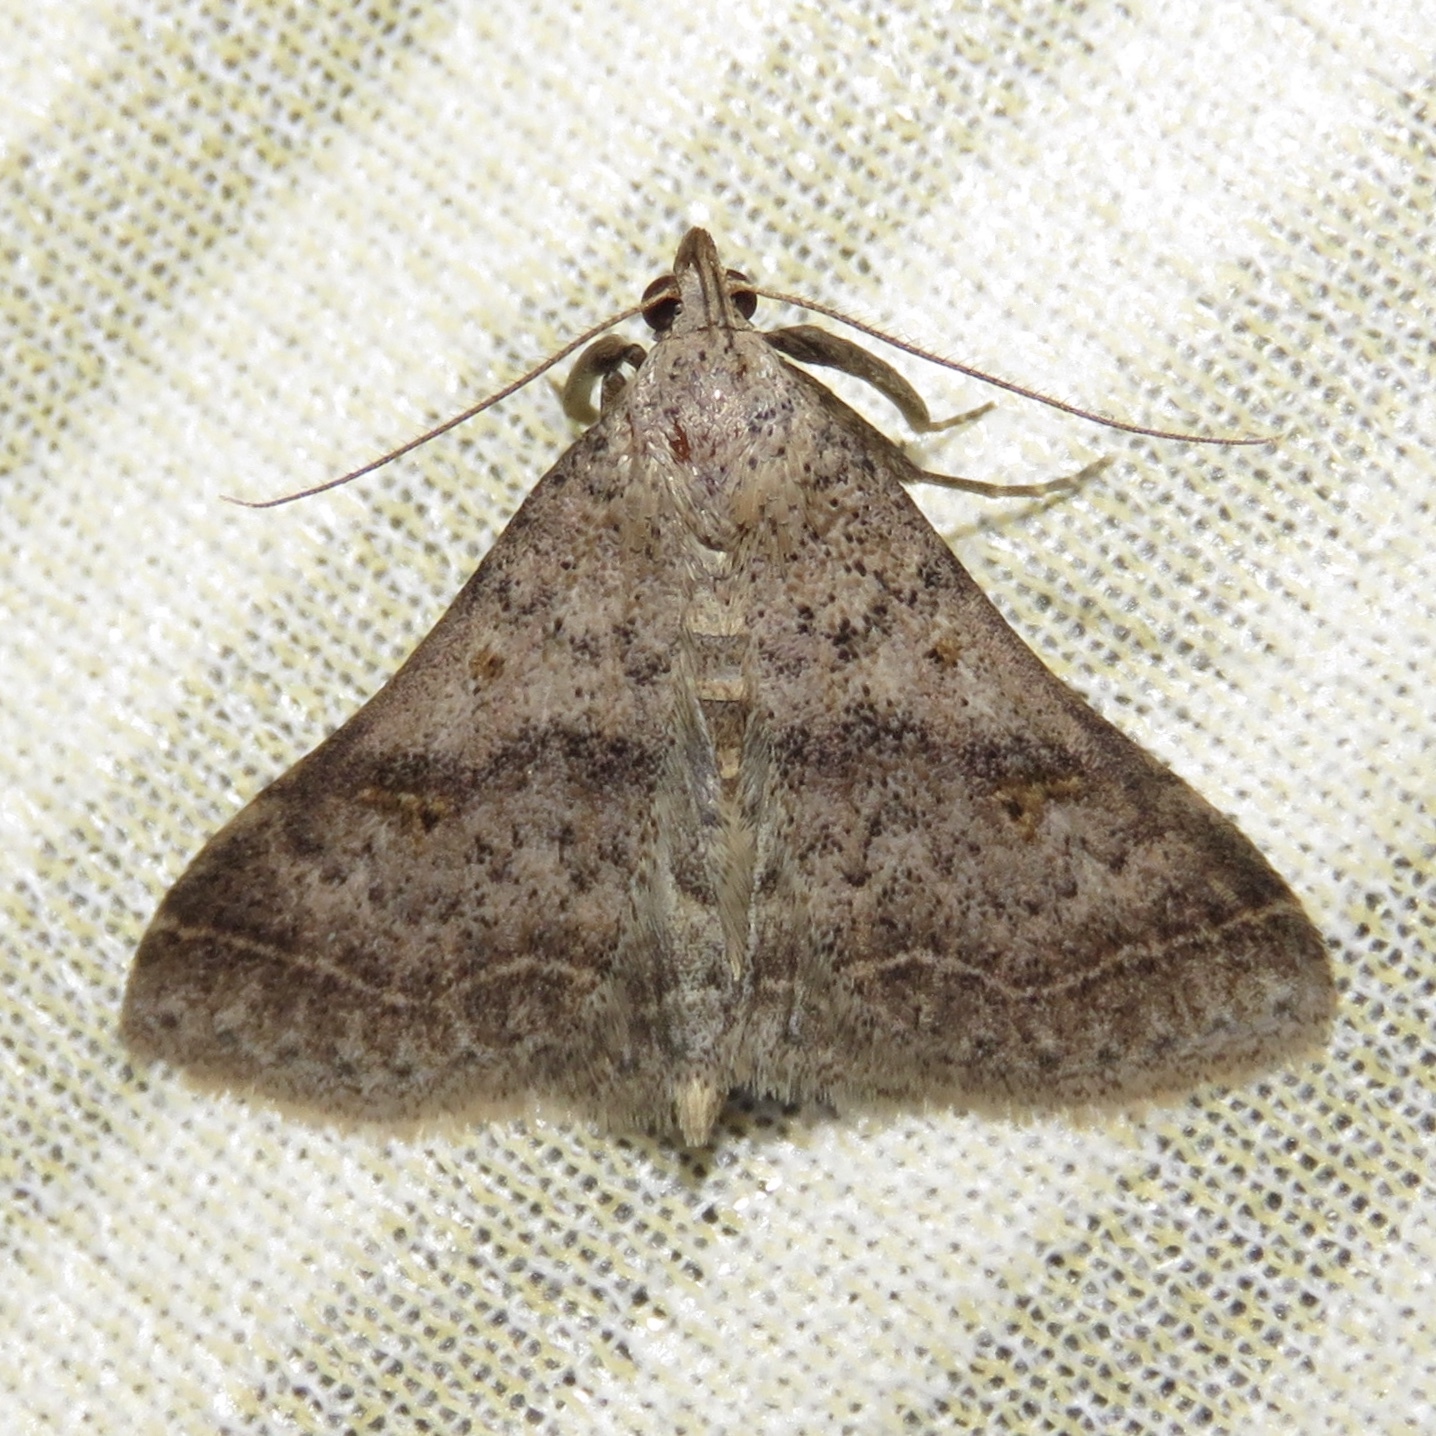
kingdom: Animalia
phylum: Arthropoda
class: Insecta
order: Lepidoptera
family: Erebidae
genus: Bleptina
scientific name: Bleptina caradrinalis
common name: Bent-winged owlet
